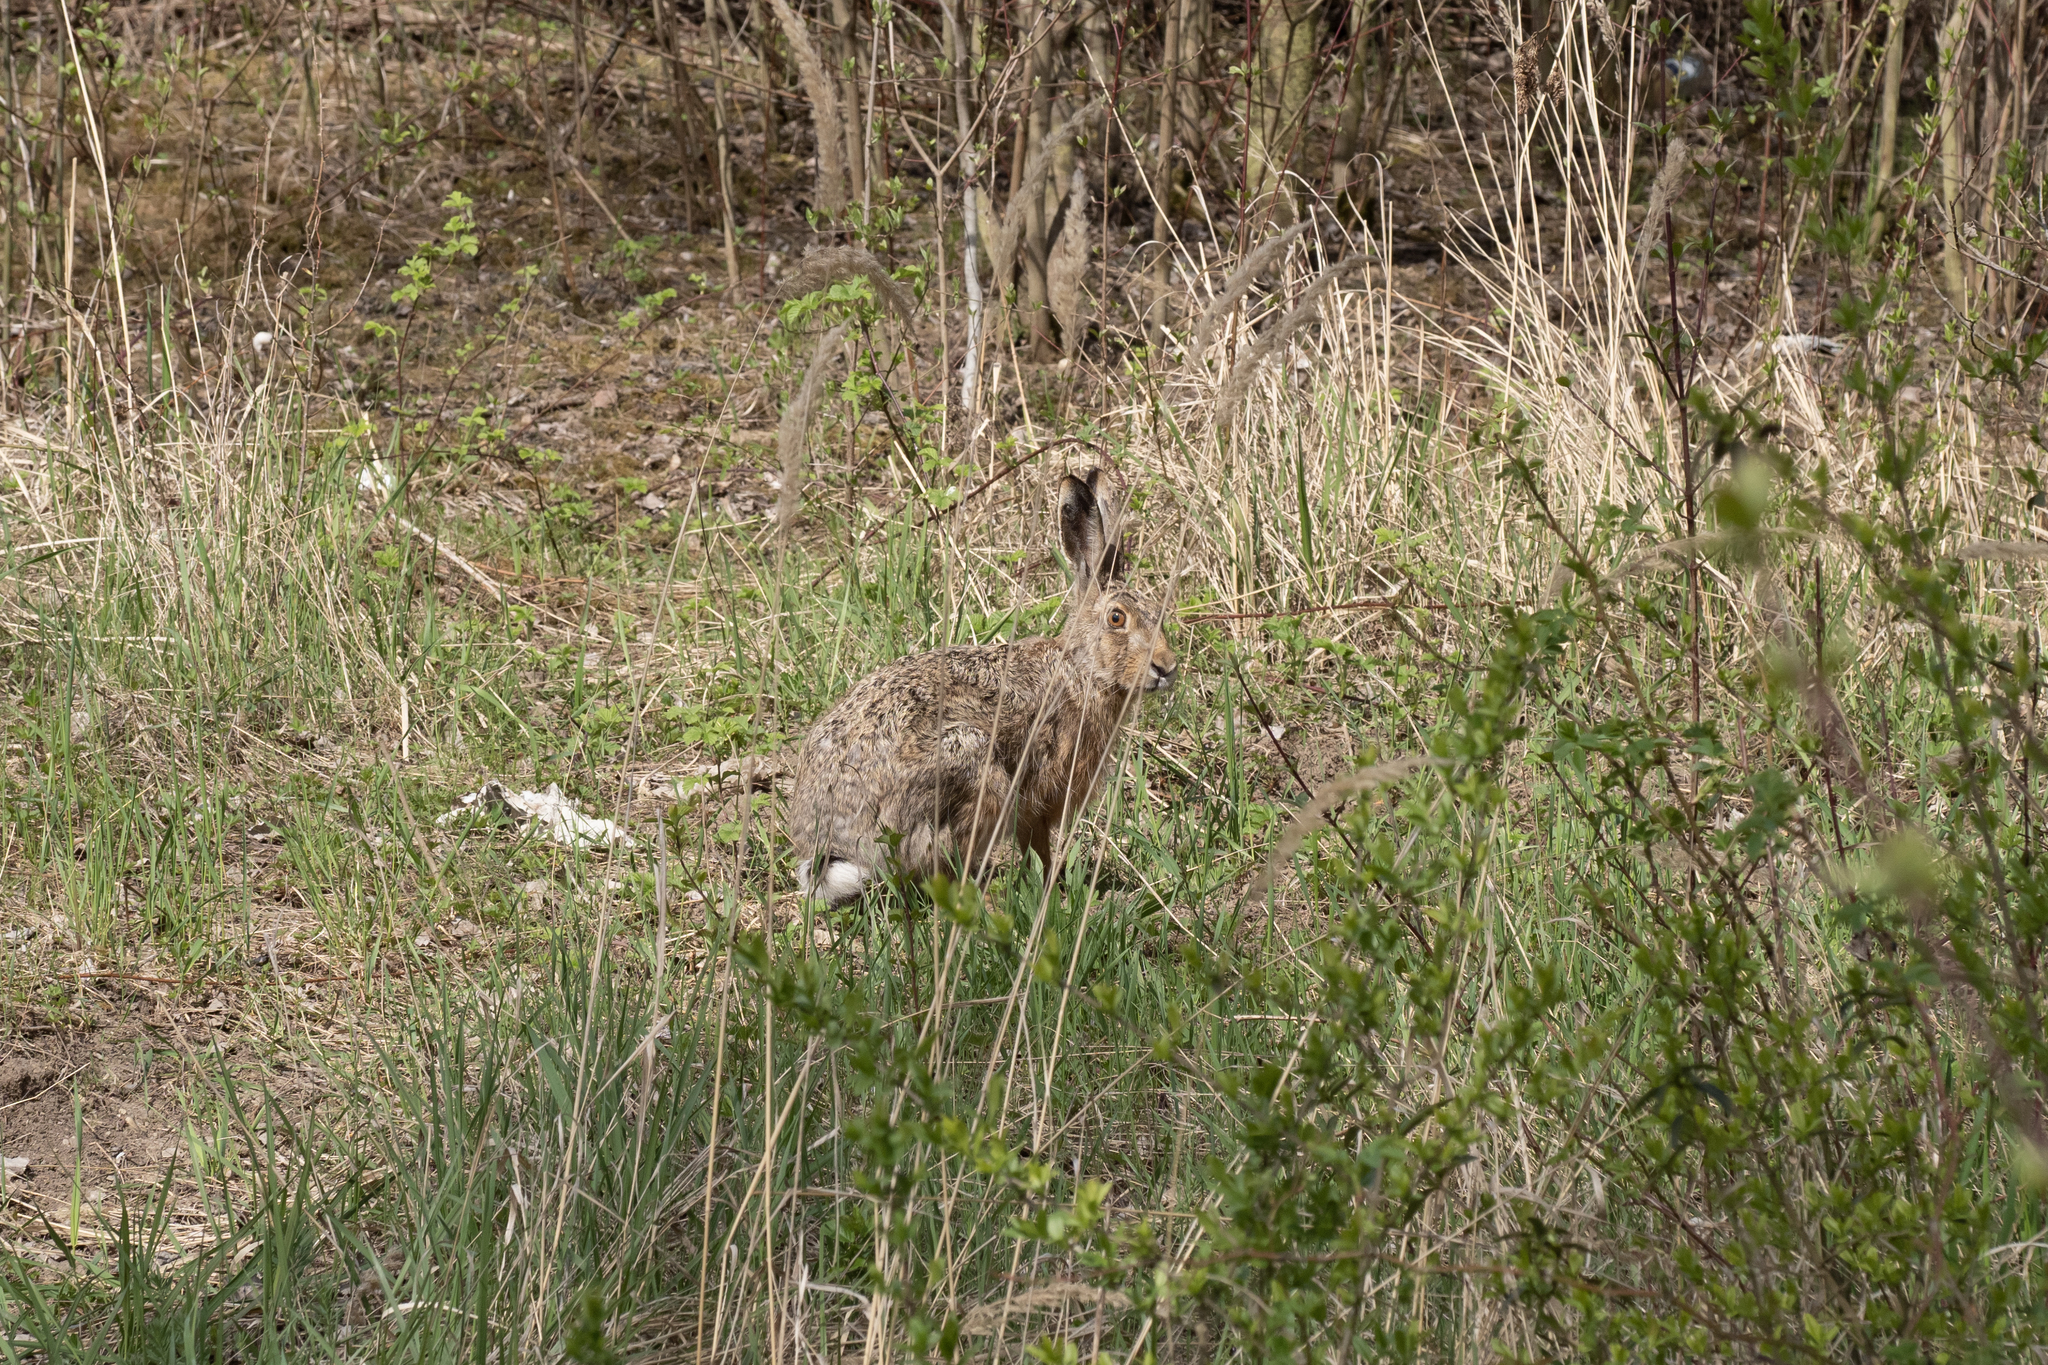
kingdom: Animalia
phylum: Chordata
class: Mammalia
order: Lagomorpha
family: Leporidae
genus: Lepus
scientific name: Lepus europaeus
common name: European hare
